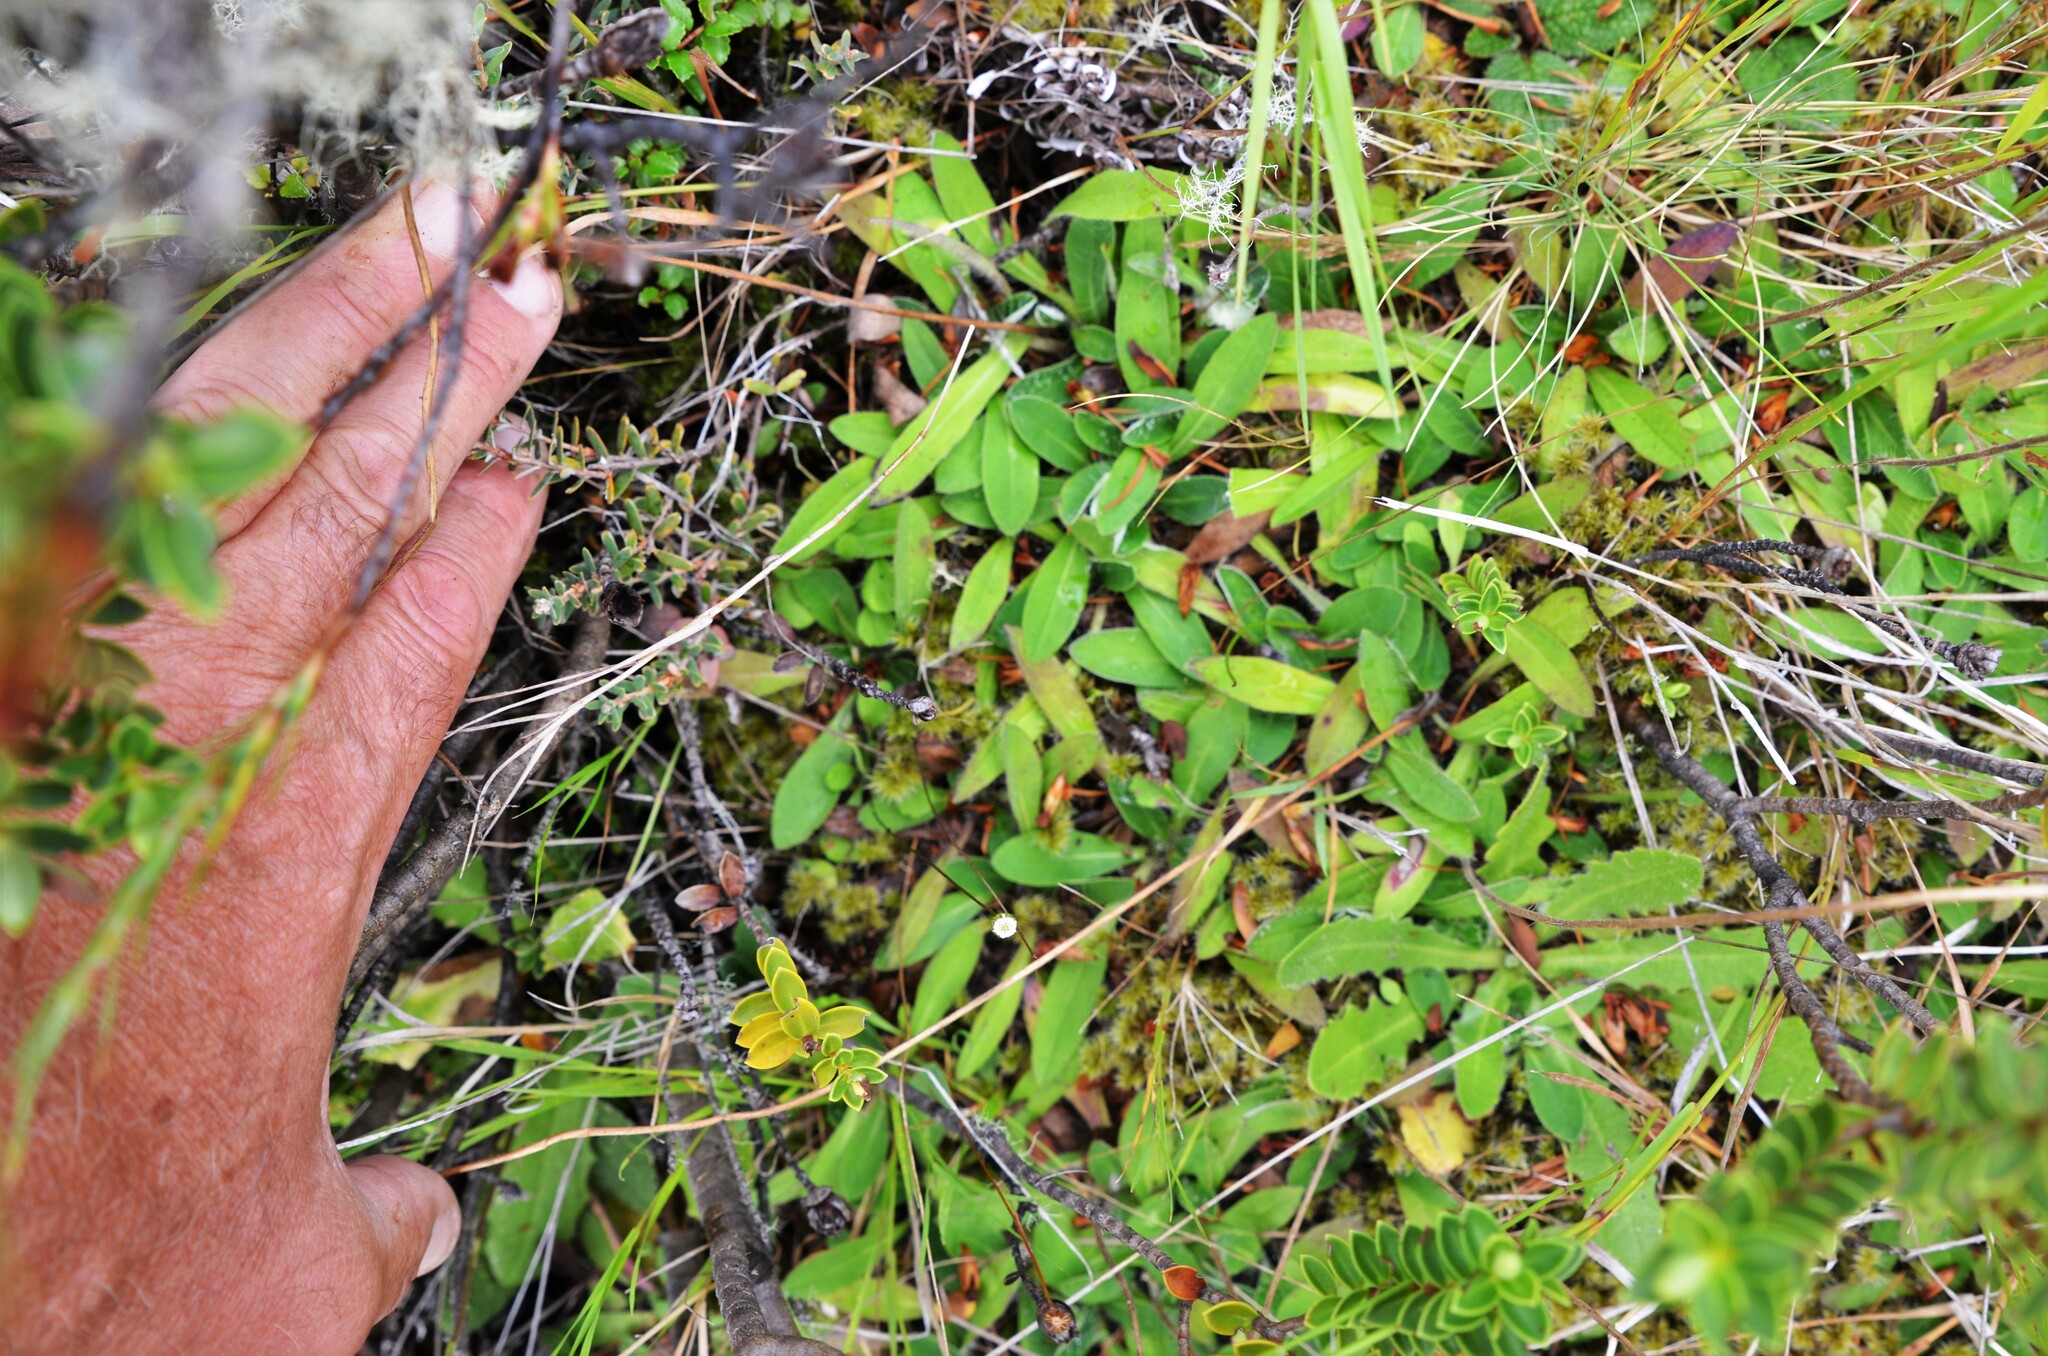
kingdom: Plantae
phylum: Tracheophyta
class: Magnoliopsida
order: Asterales
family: Asteraceae
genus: Pilosella
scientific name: Pilosella officinarum
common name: Mouse-ear hawkweed
